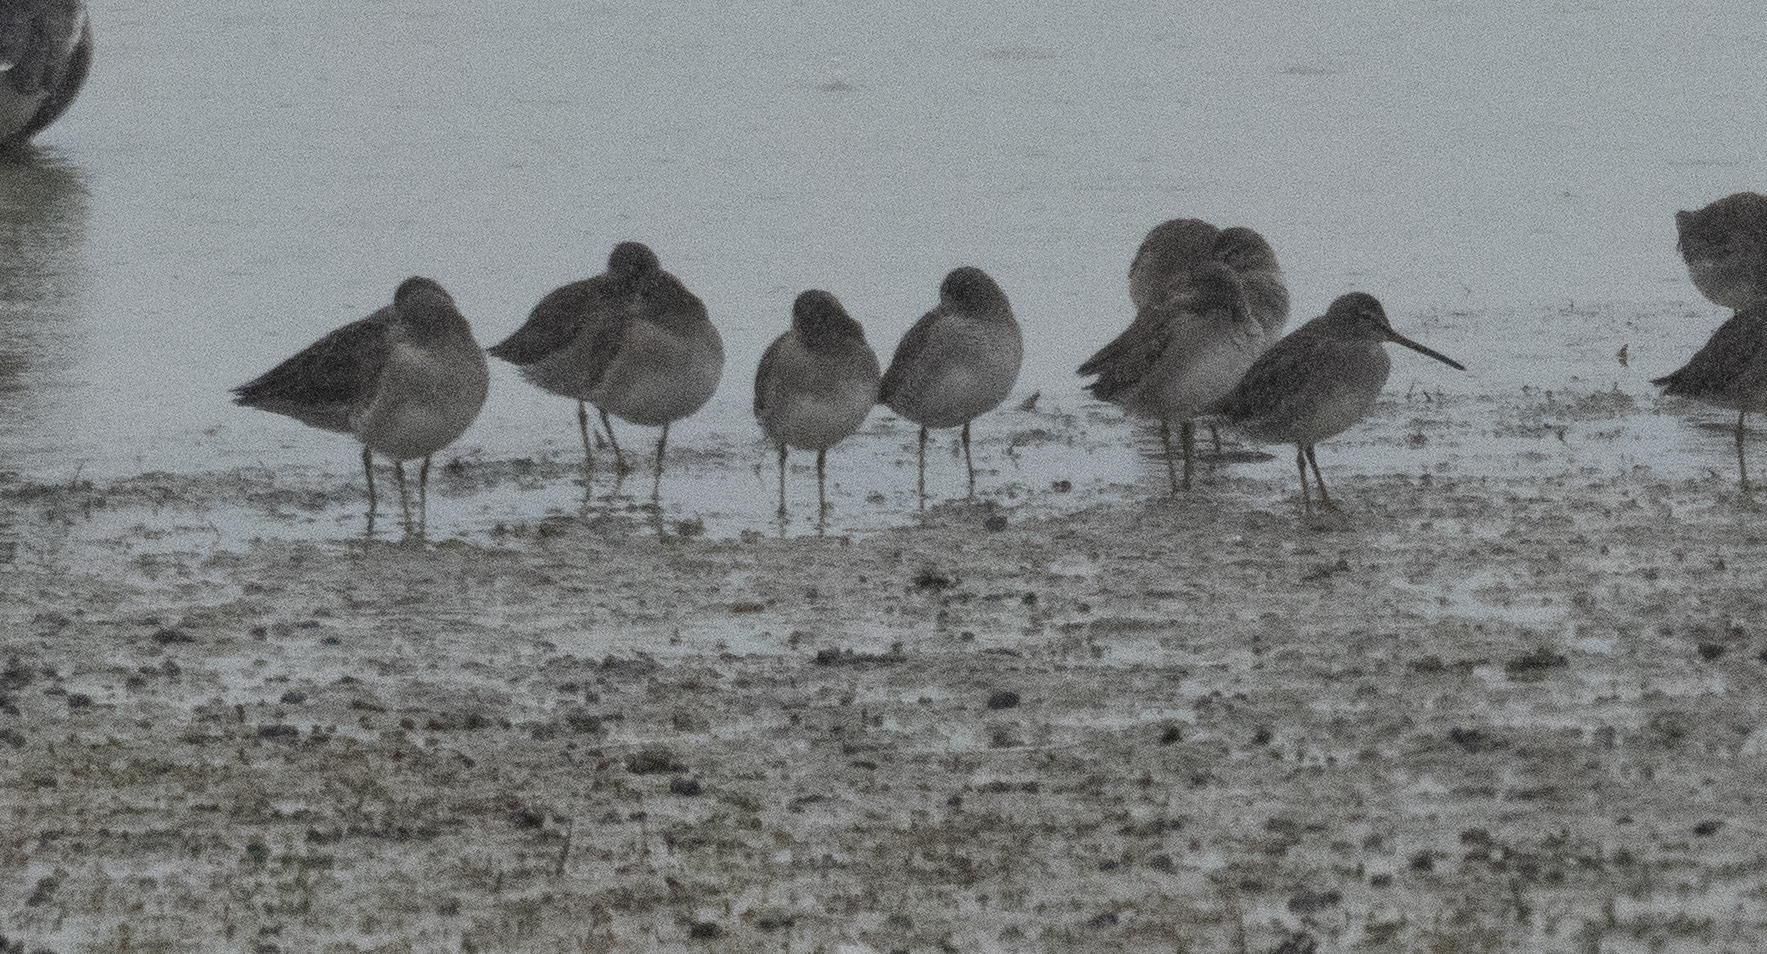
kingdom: Animalia
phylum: Chordata
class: Aves
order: Charadriiformes
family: Scolopacidae
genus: Limnodromus
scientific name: Limnodromus scolopaceus
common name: Long-billed dowitcher
